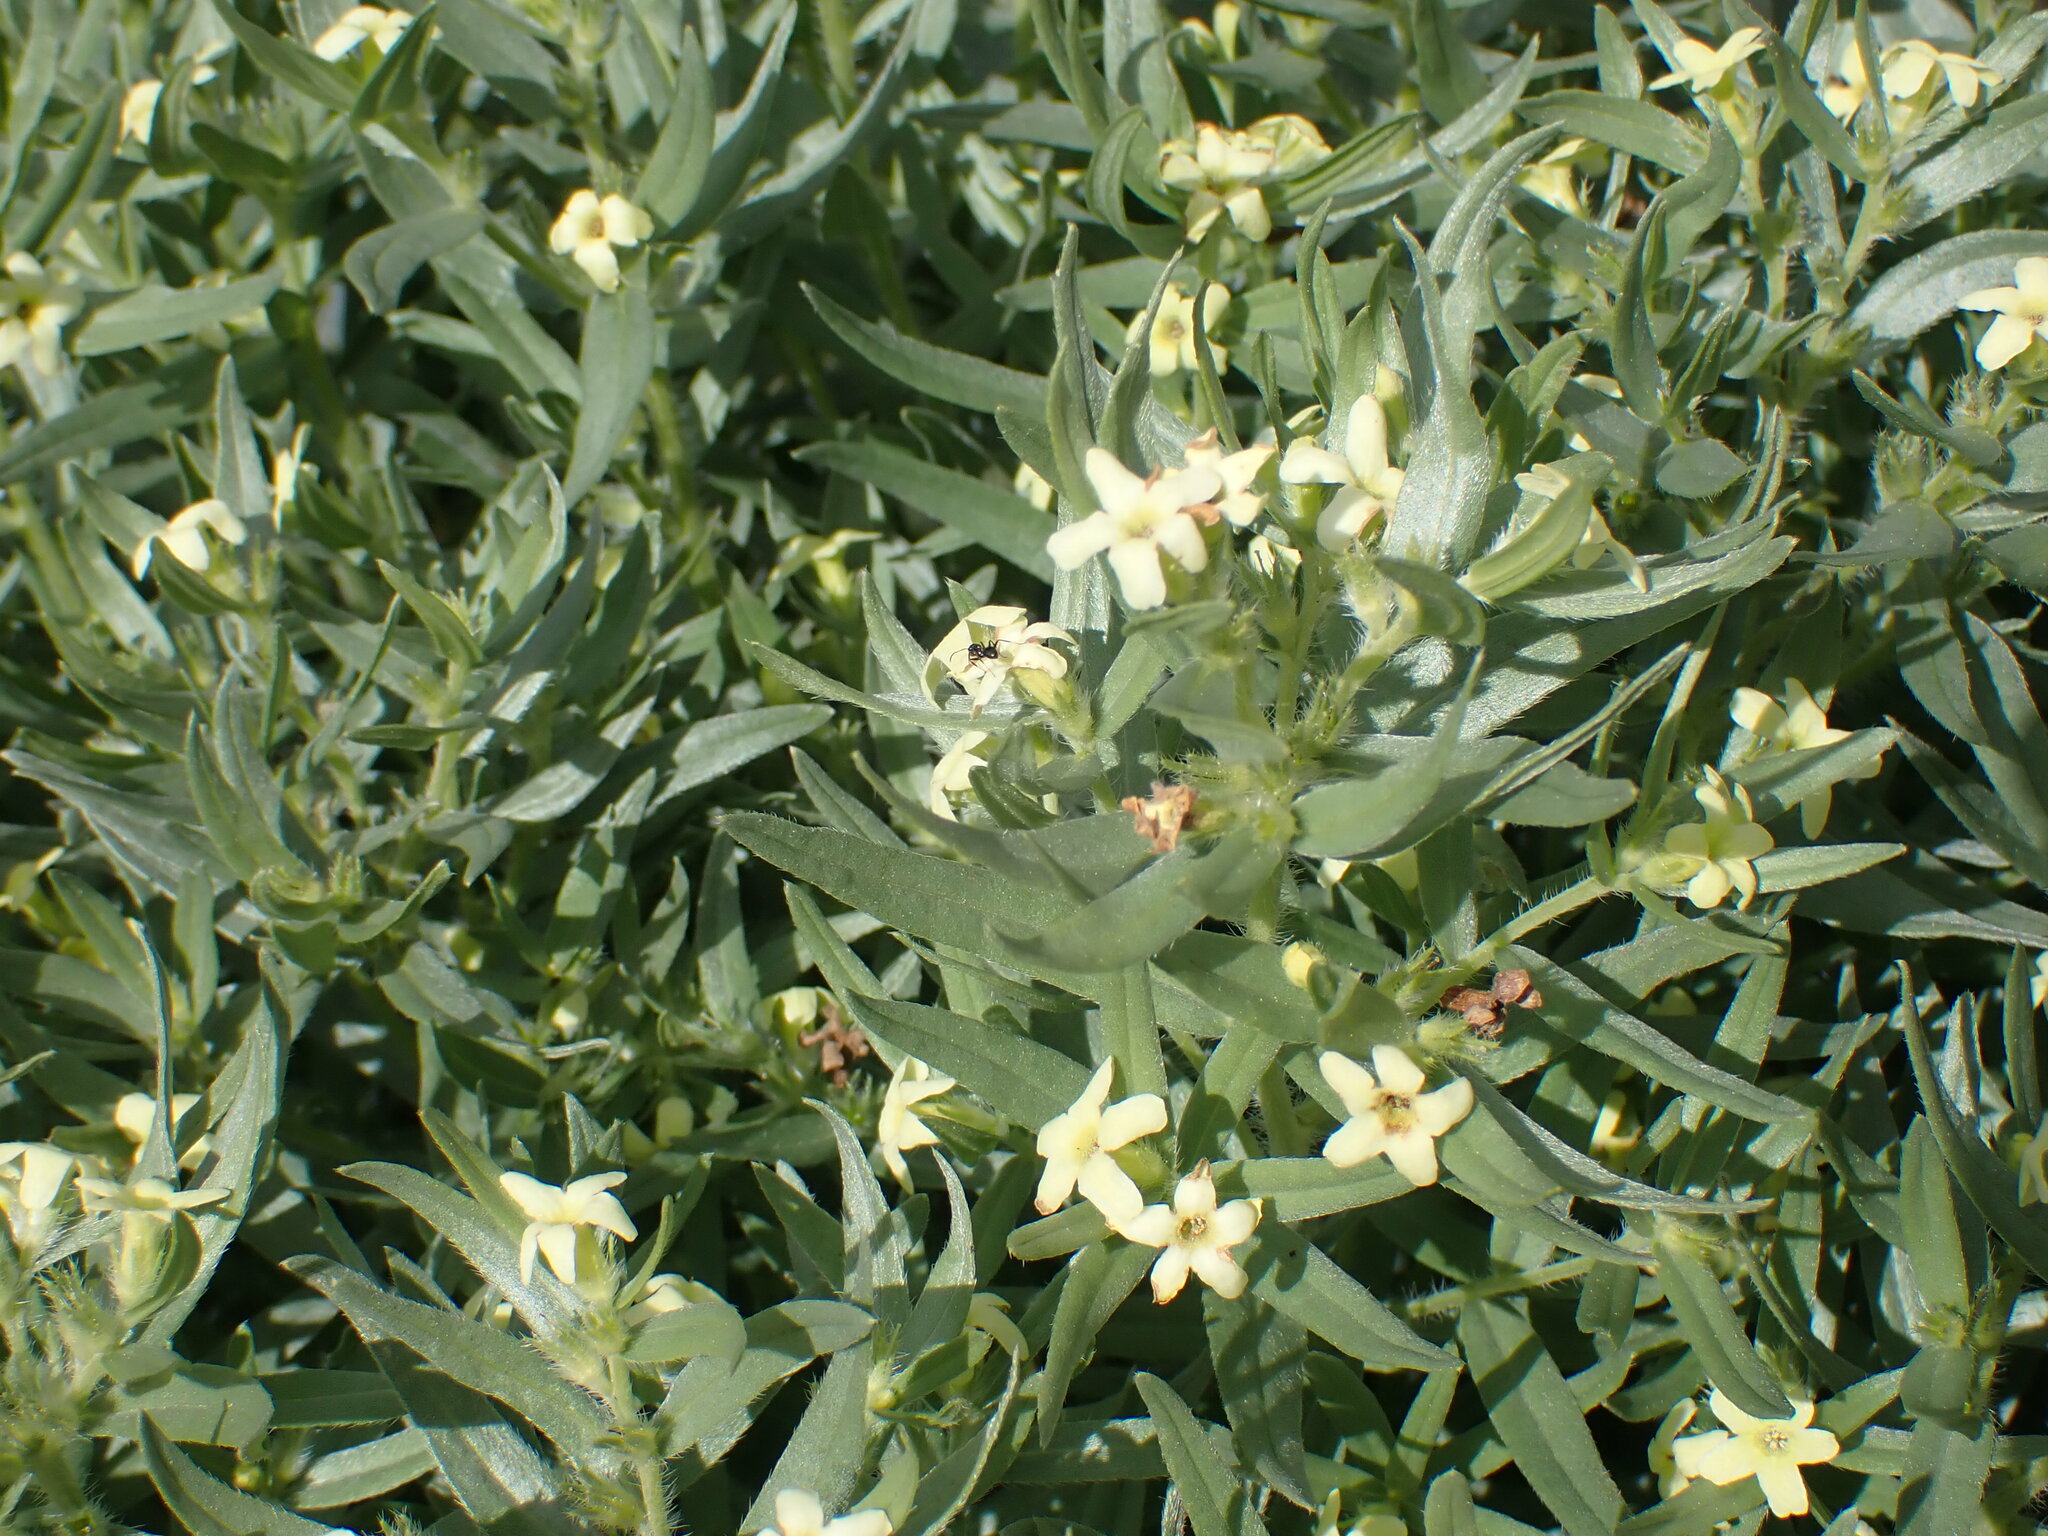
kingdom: Plantae
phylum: Tracheophyta
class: Magnoliopsida
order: Boraginales
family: Boraginaceae
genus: Lithospermum
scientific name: Lithospermum ruderale
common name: Western gromwell
